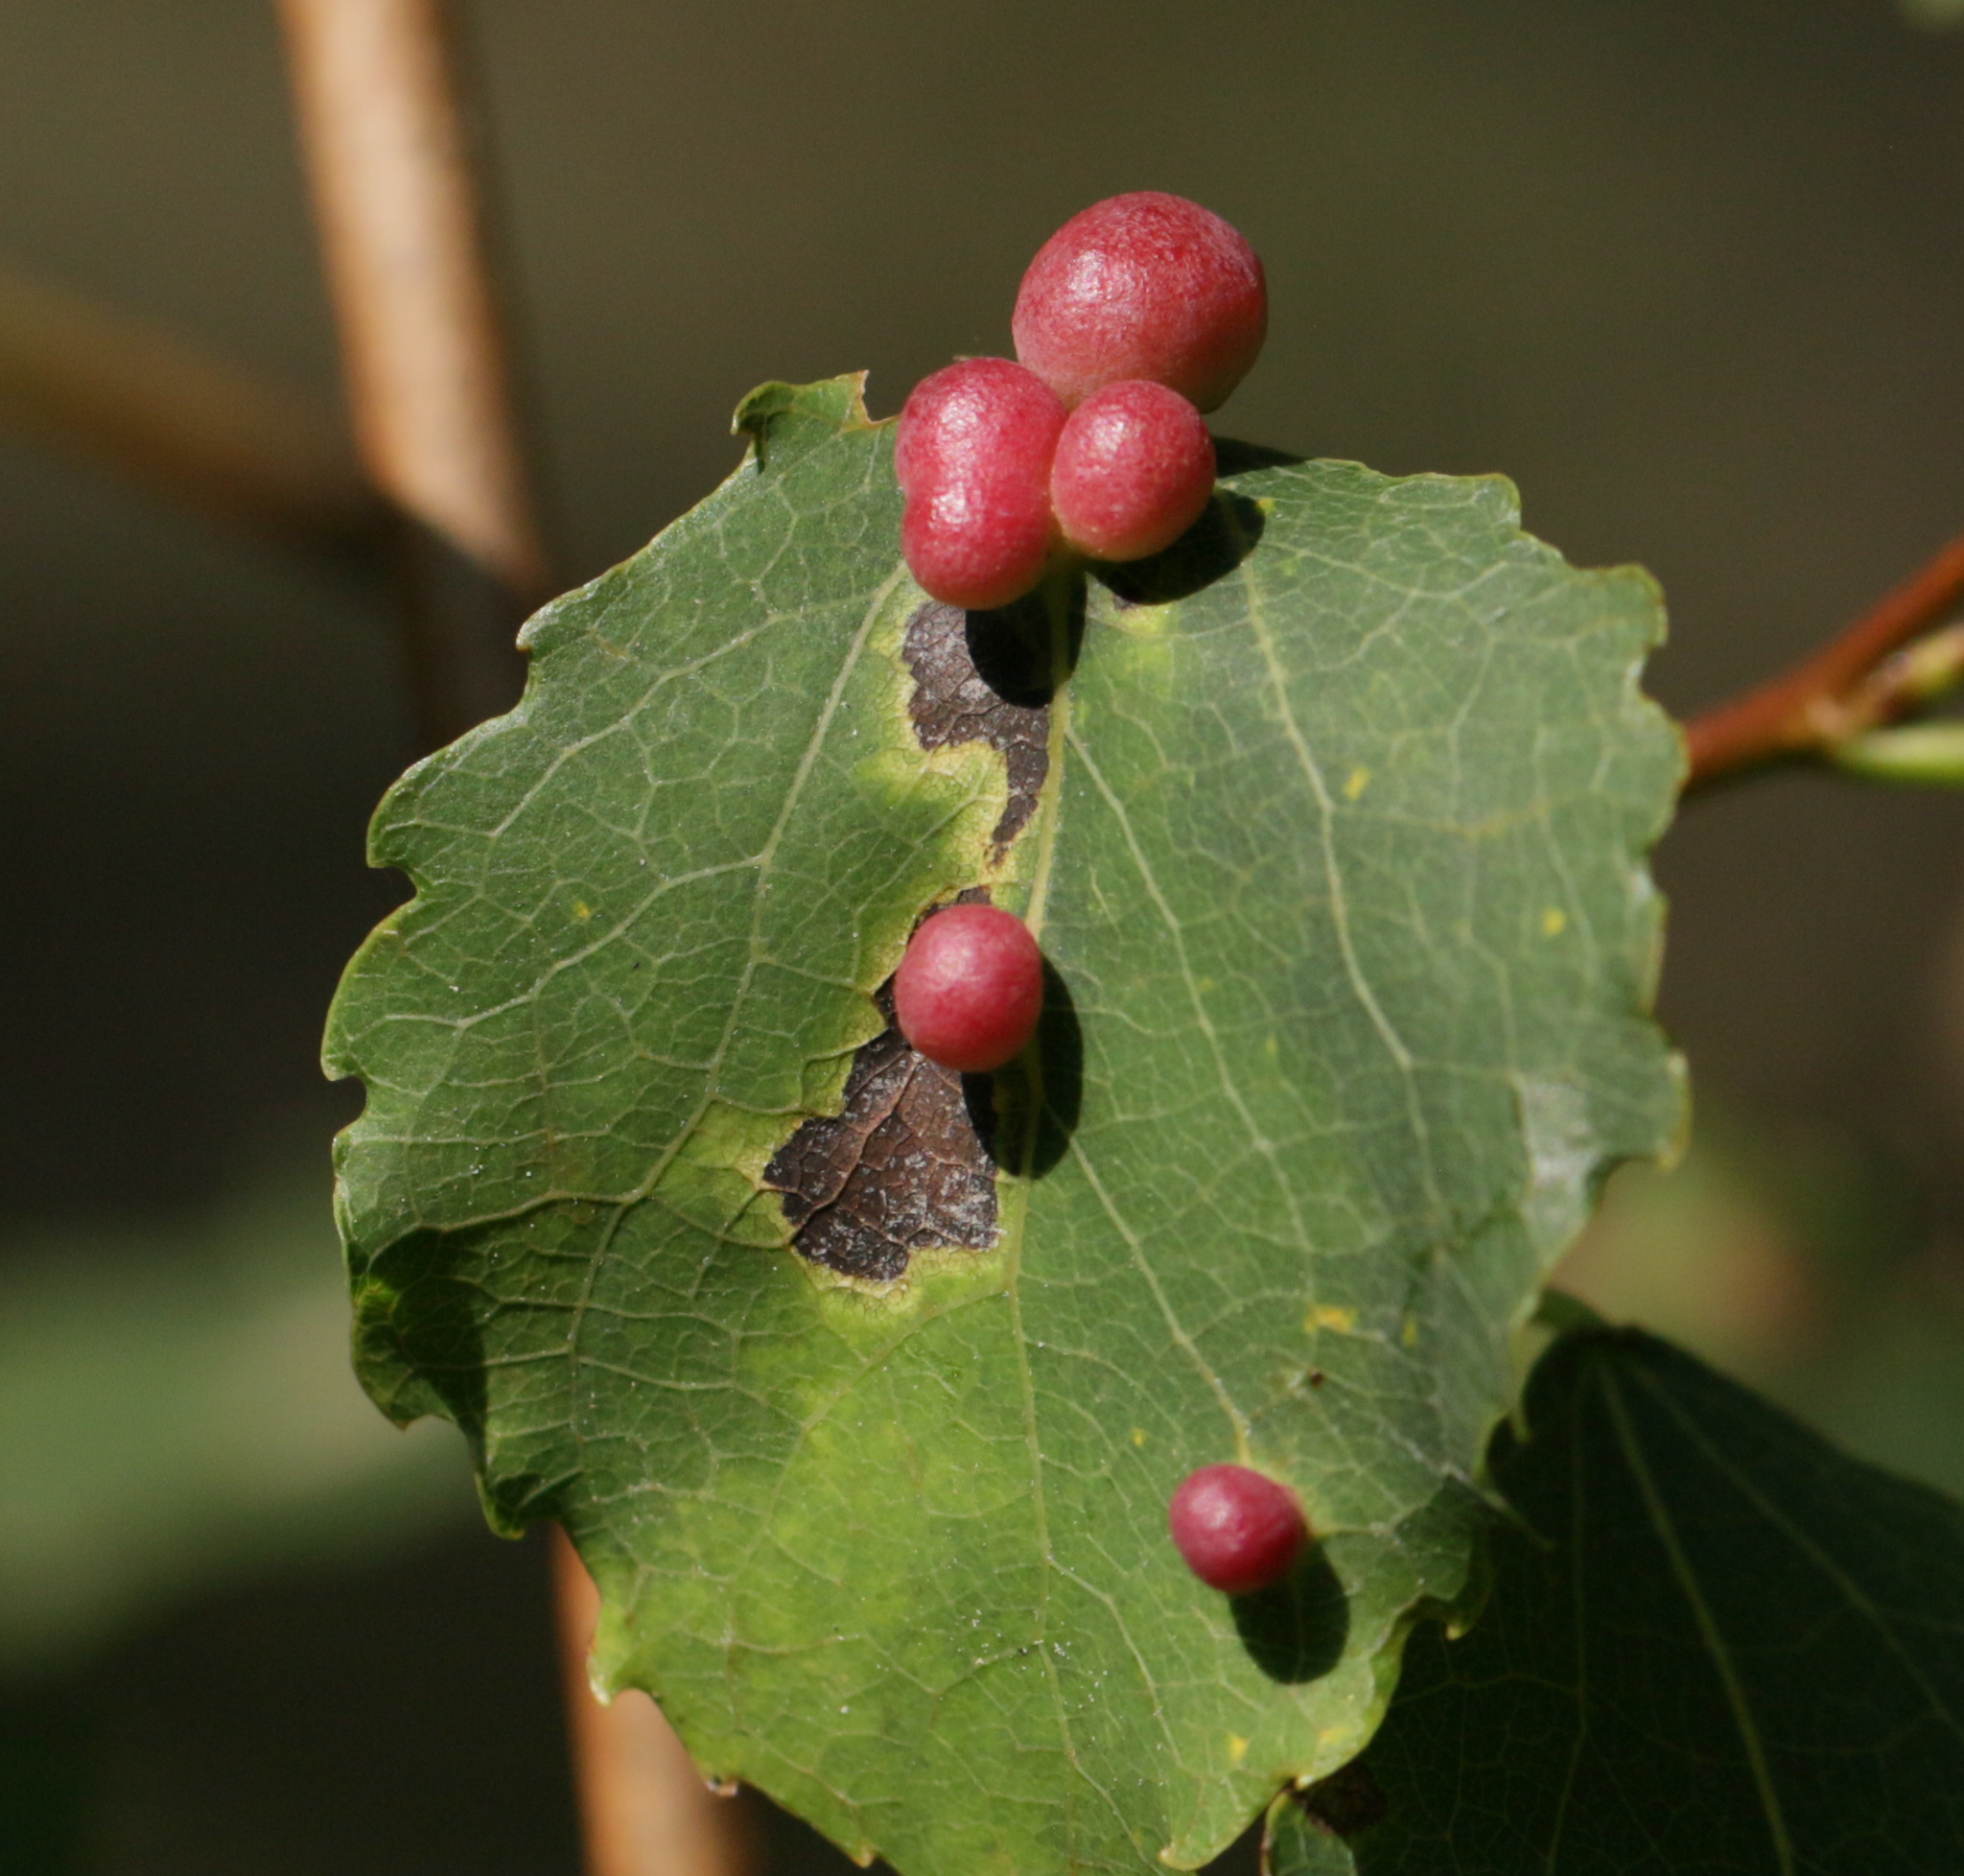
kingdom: Animalia
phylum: Arthropoda
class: Insecta
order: Diptera
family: Cecidomyiidae
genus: Harmandiola
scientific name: Harmandiola tremulae
